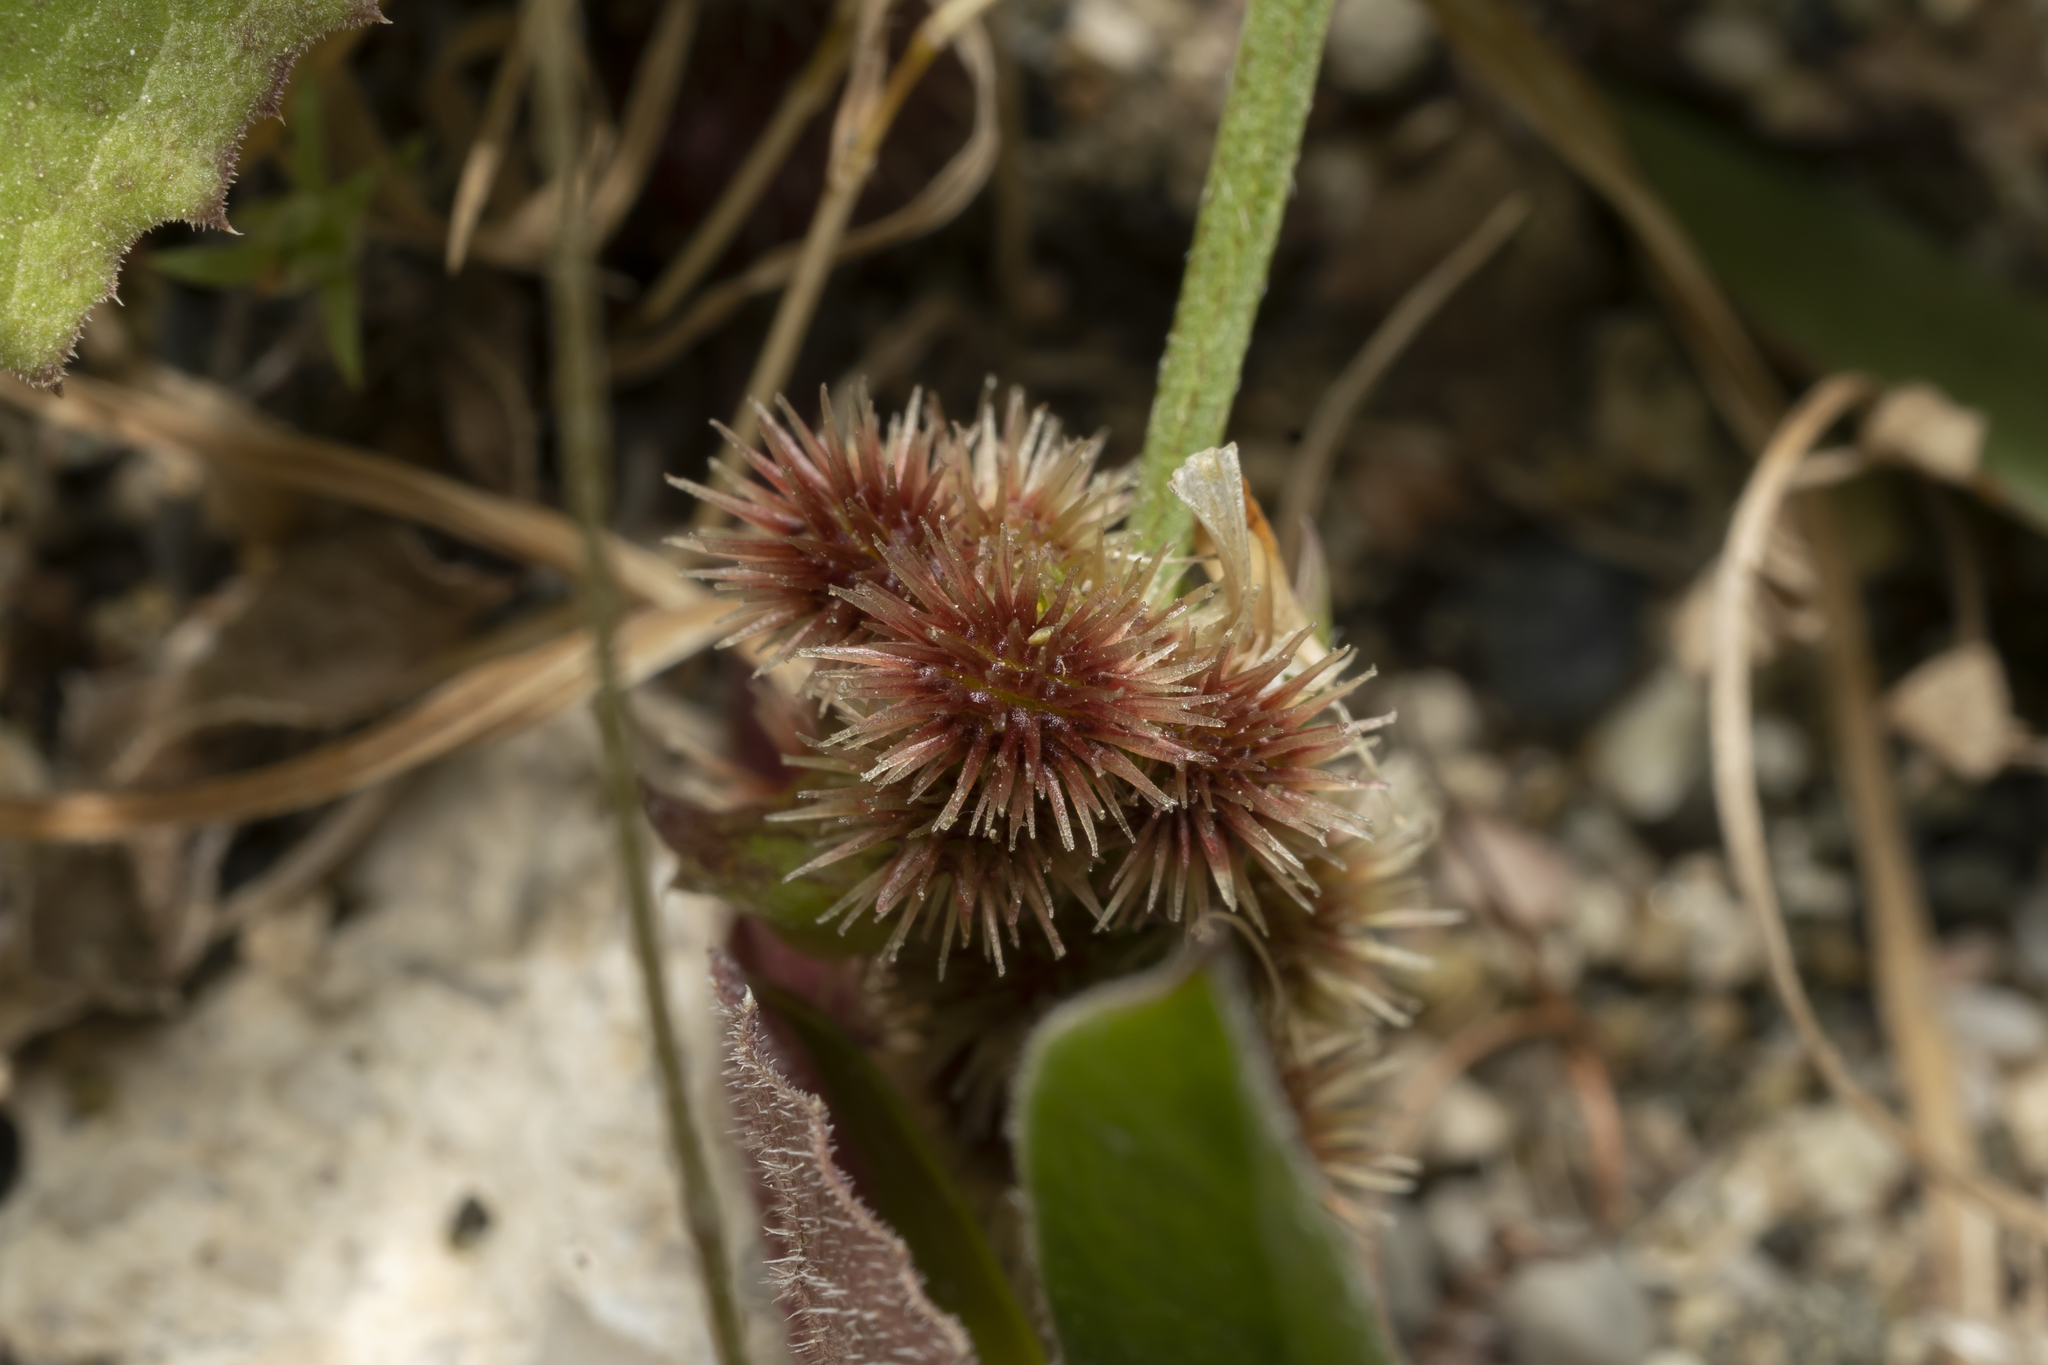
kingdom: Plantae
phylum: Tracheophyta
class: Magnoliopsida
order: Fabales
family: Fabaceae
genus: Scorpiurus
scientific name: Scorpiurus muricatus
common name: Caterpillar-plant
